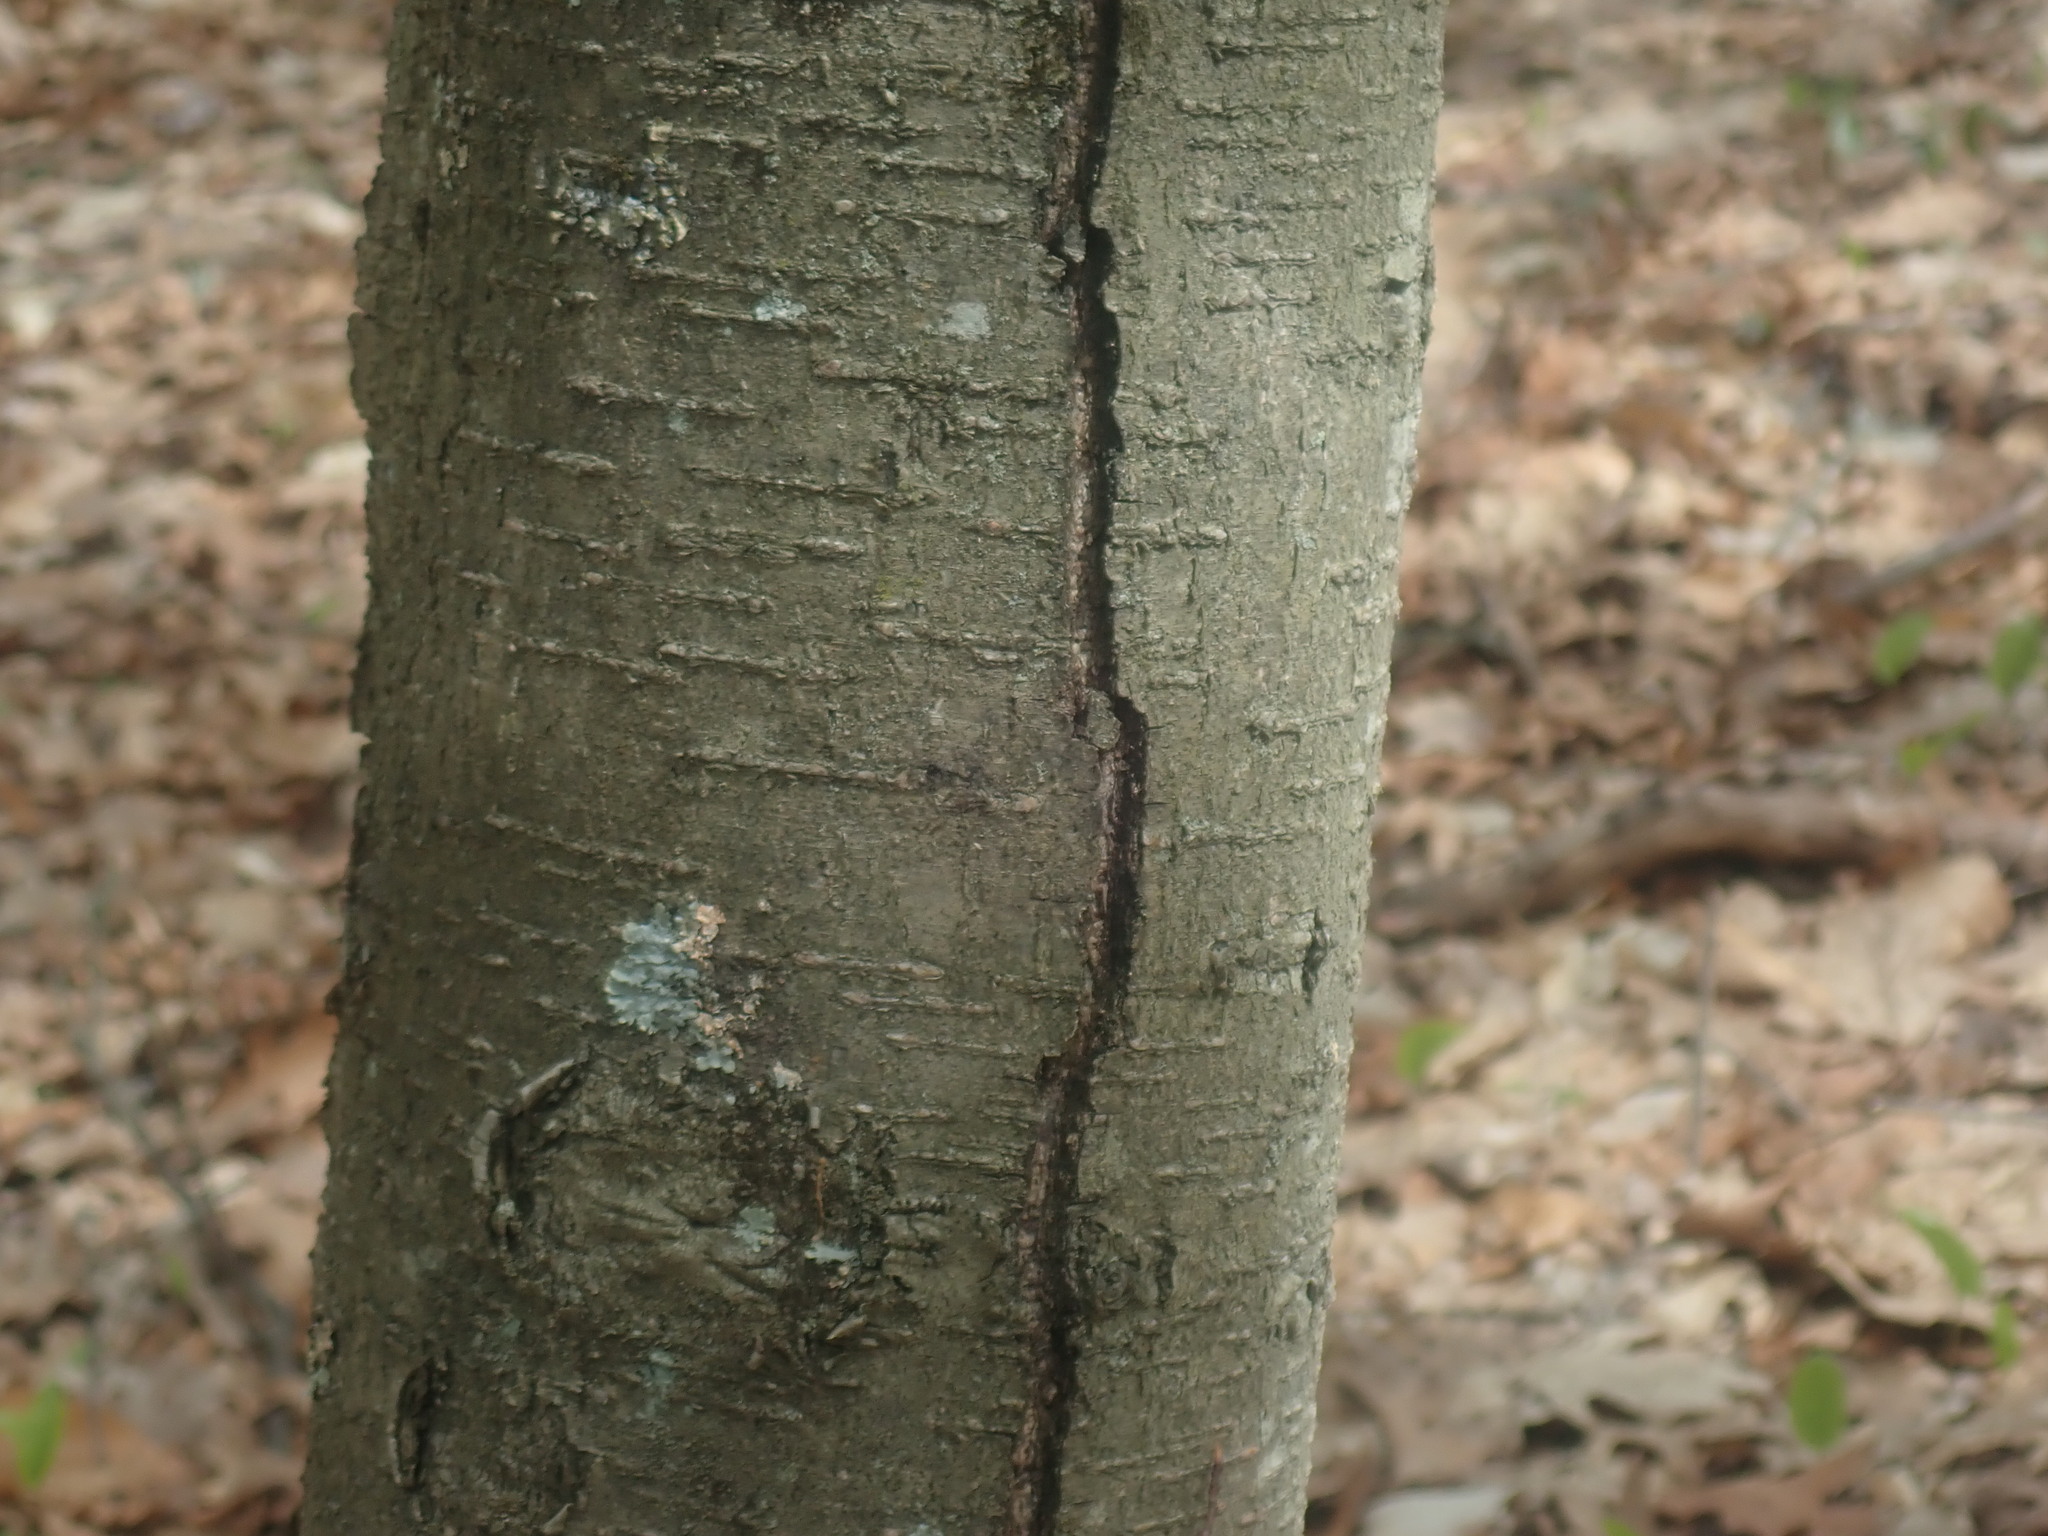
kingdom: Plantae
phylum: Tracheophyta
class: Magnoliopsida
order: Fagales
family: Betulaceae
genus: Betula
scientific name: Betula lenta
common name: Black birch
